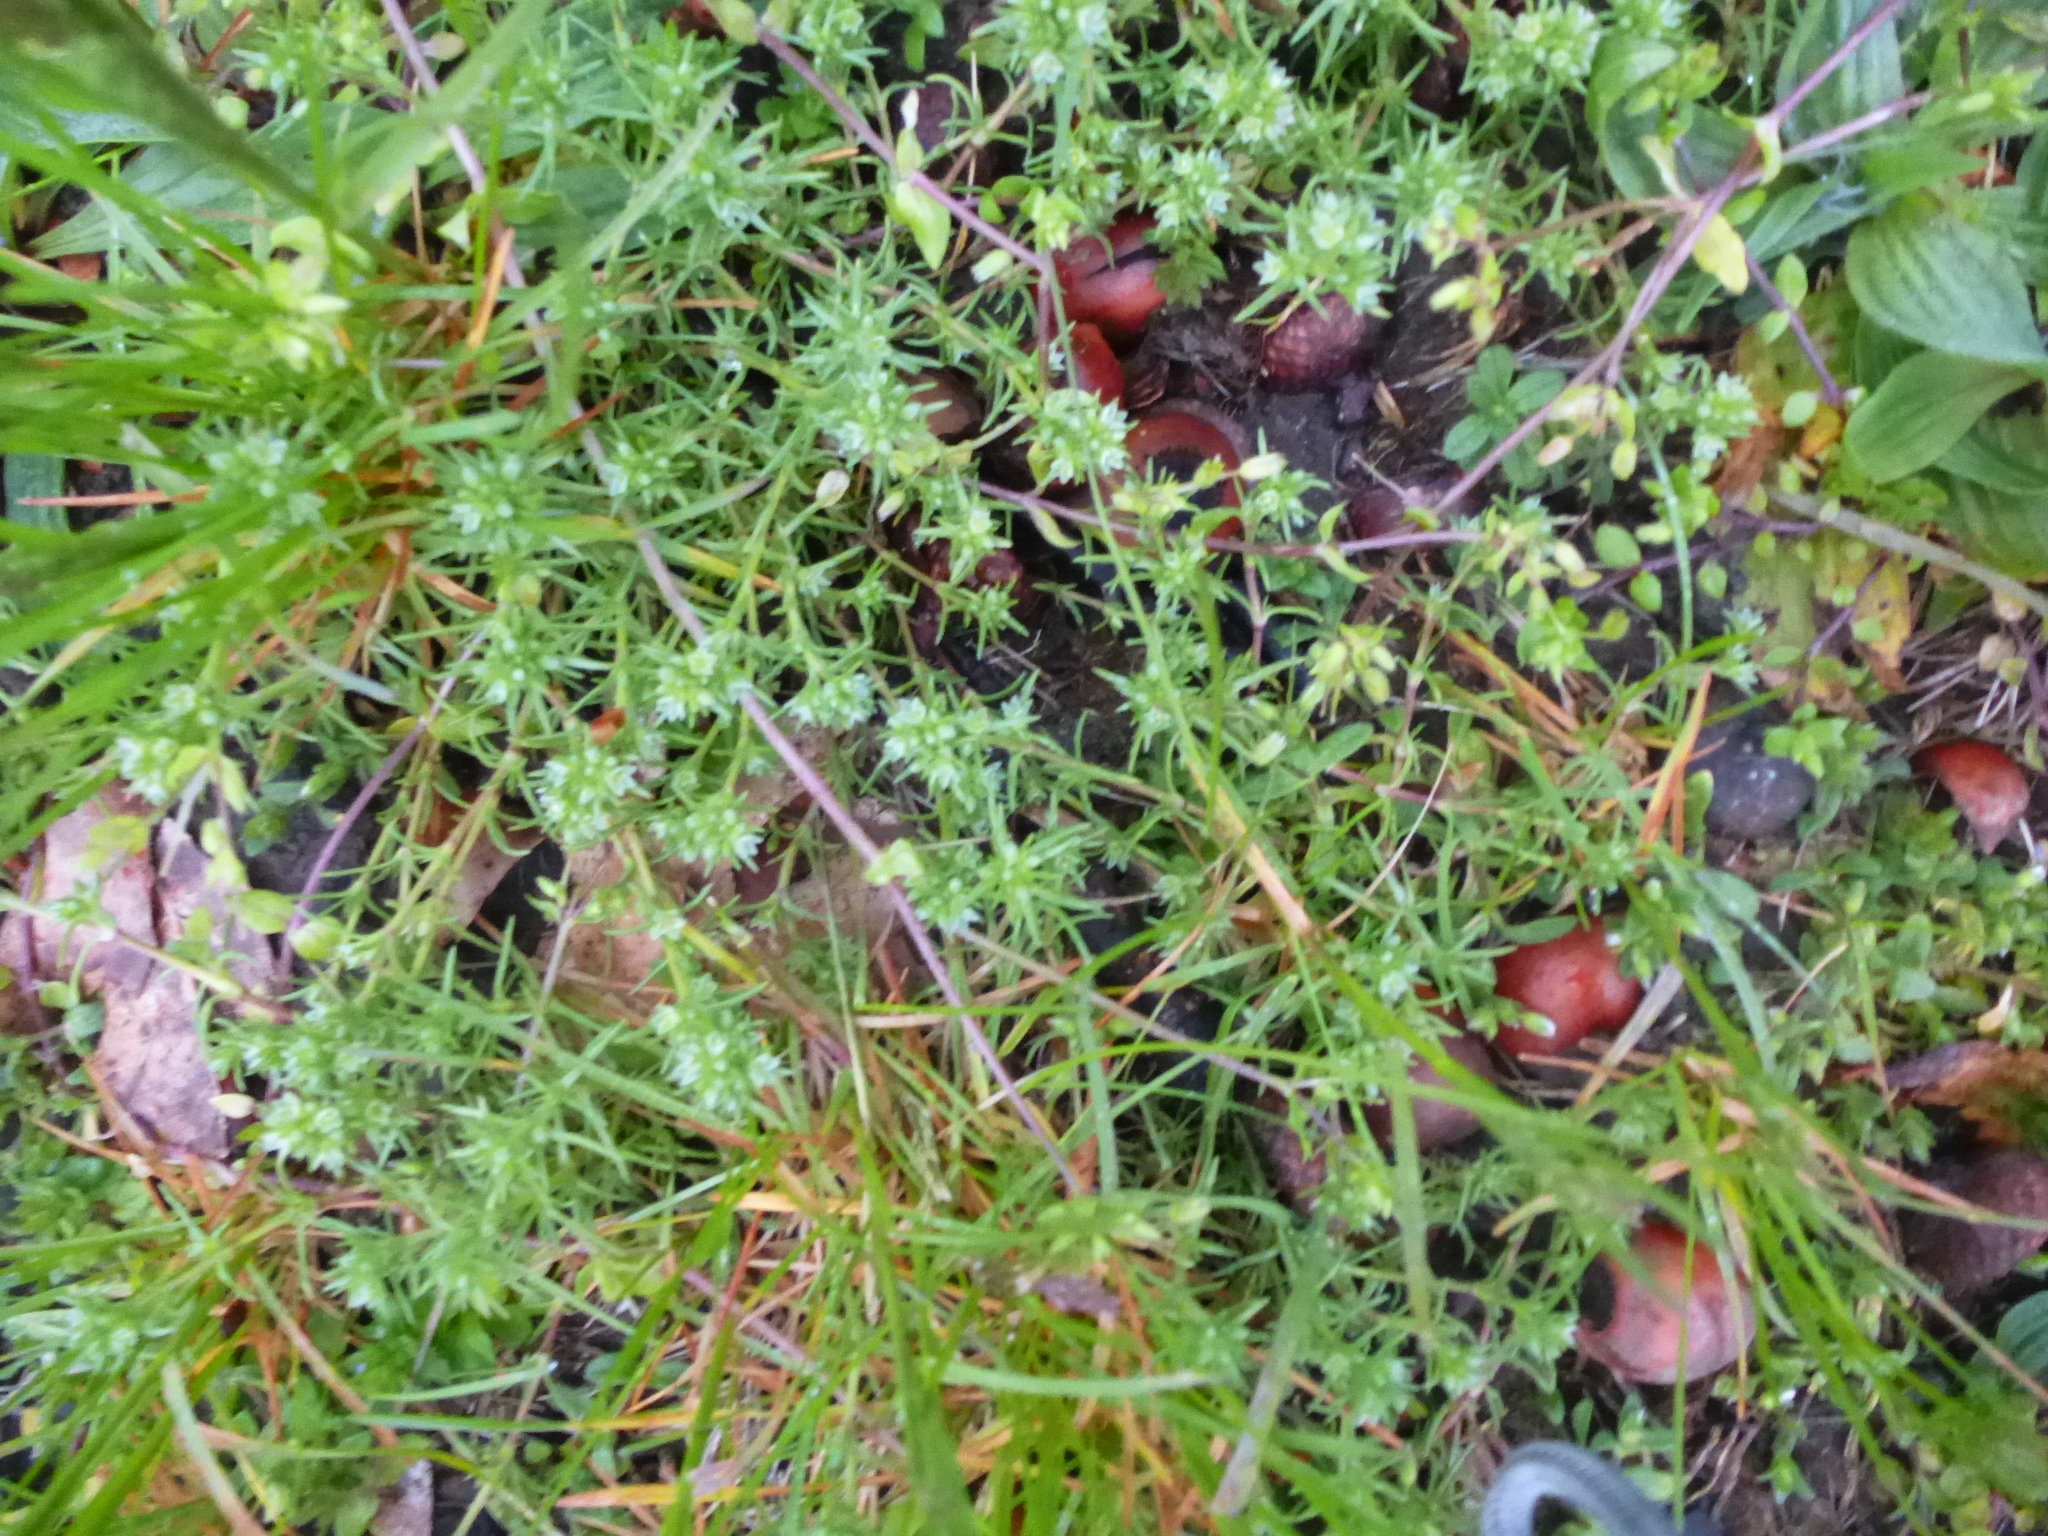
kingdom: Plantae
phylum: Tracheophyta
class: Magnoliopsida
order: Caryophyllales
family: Caryophyllaceae
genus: Scleranthus
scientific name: Scleranthus annuus
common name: Annual knawel
